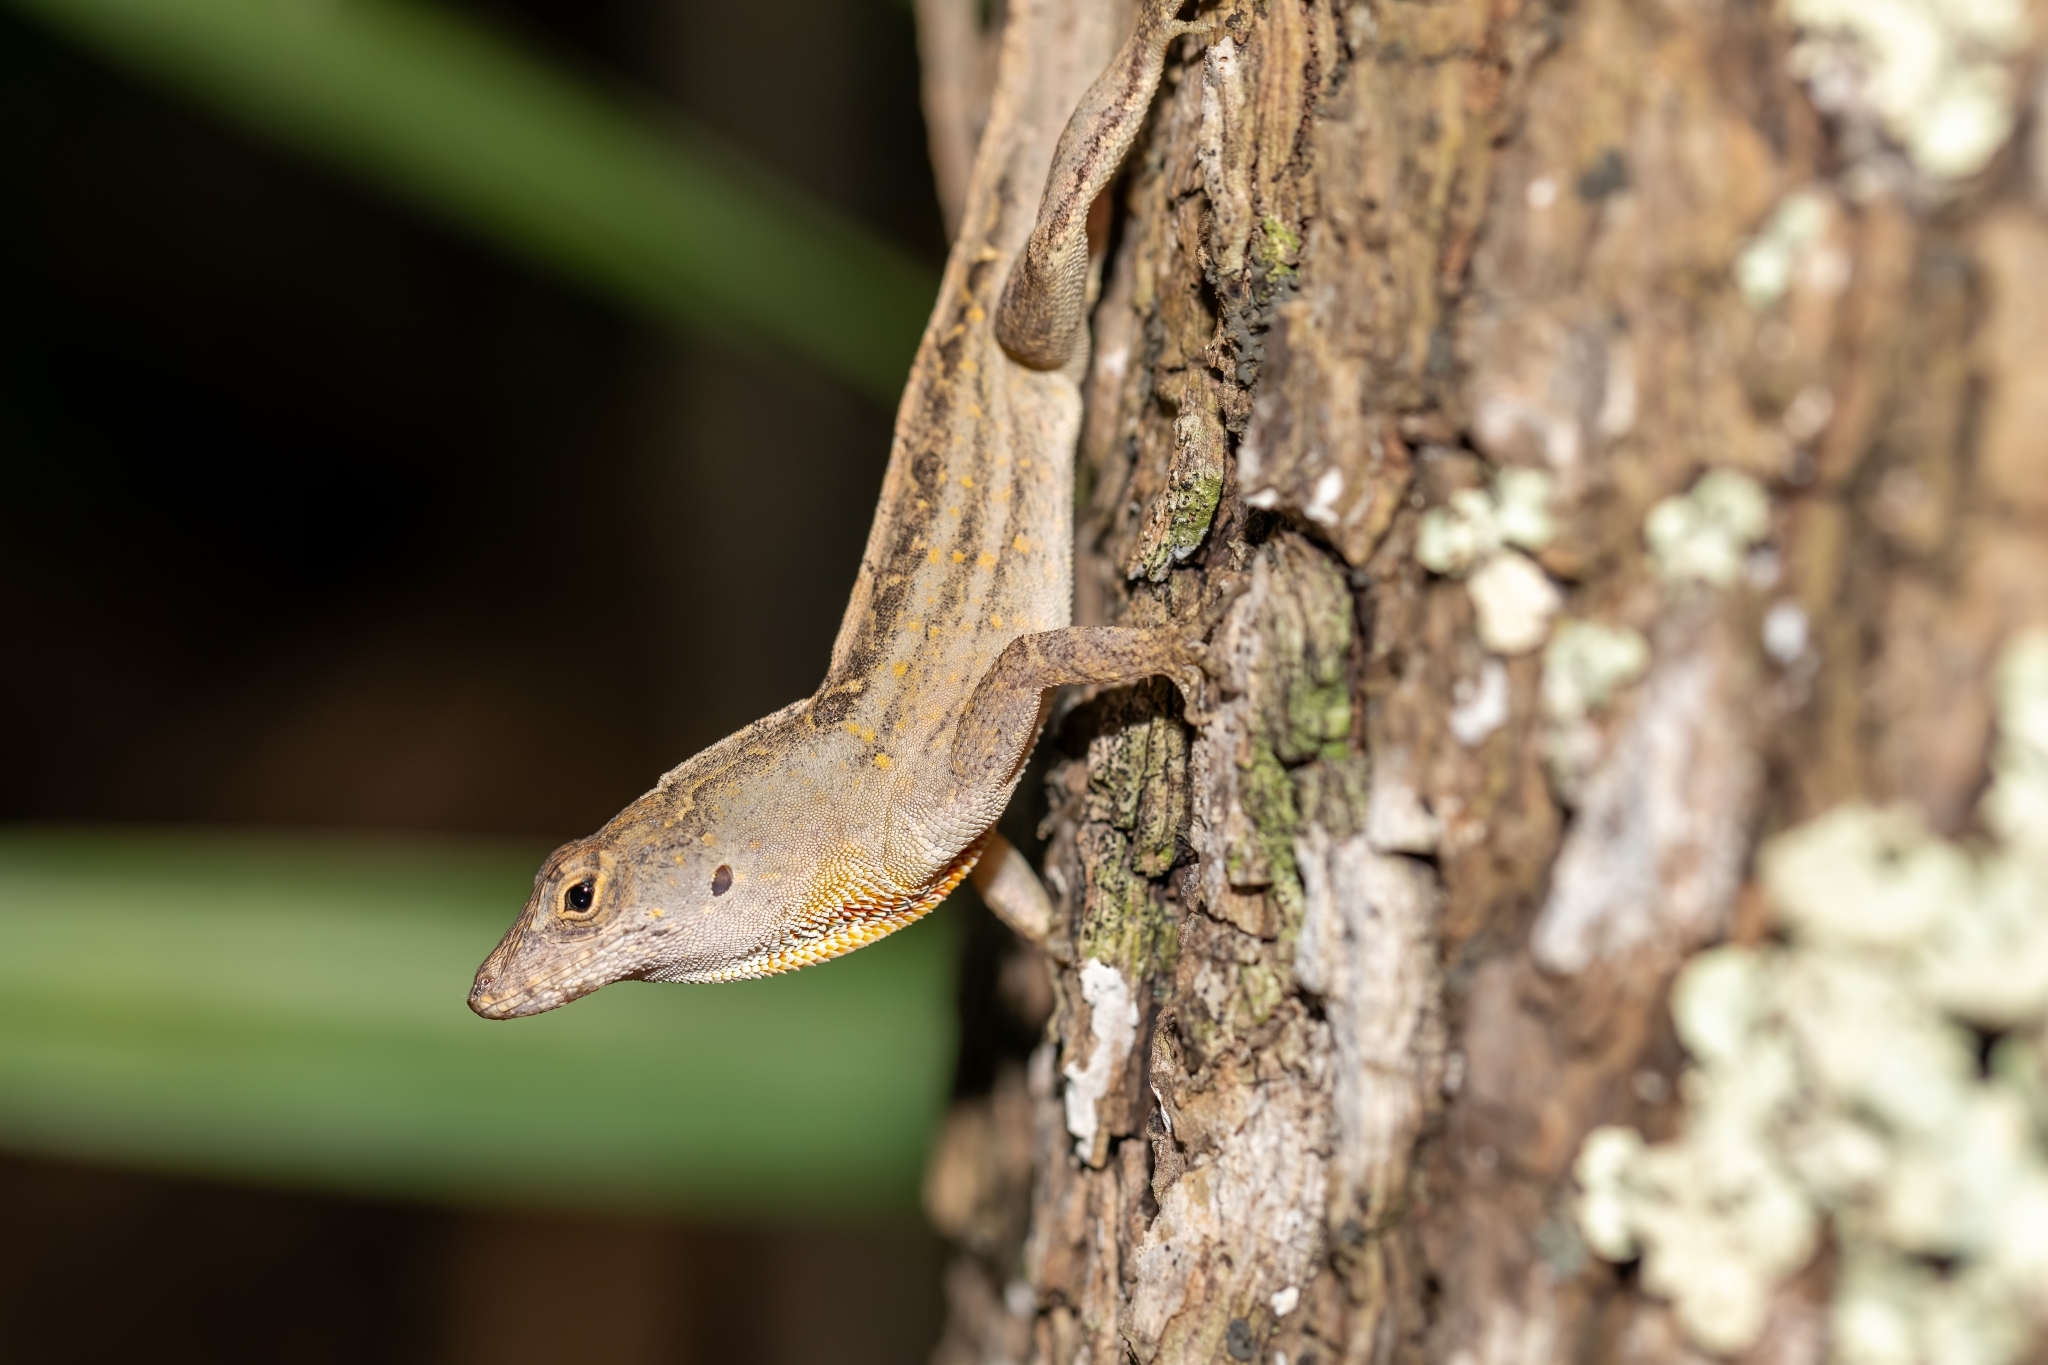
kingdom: Animalia
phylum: Chordata
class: Squamata
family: Dactyloidae
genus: Anolis
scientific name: Anolis sagrei
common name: Brown anole
